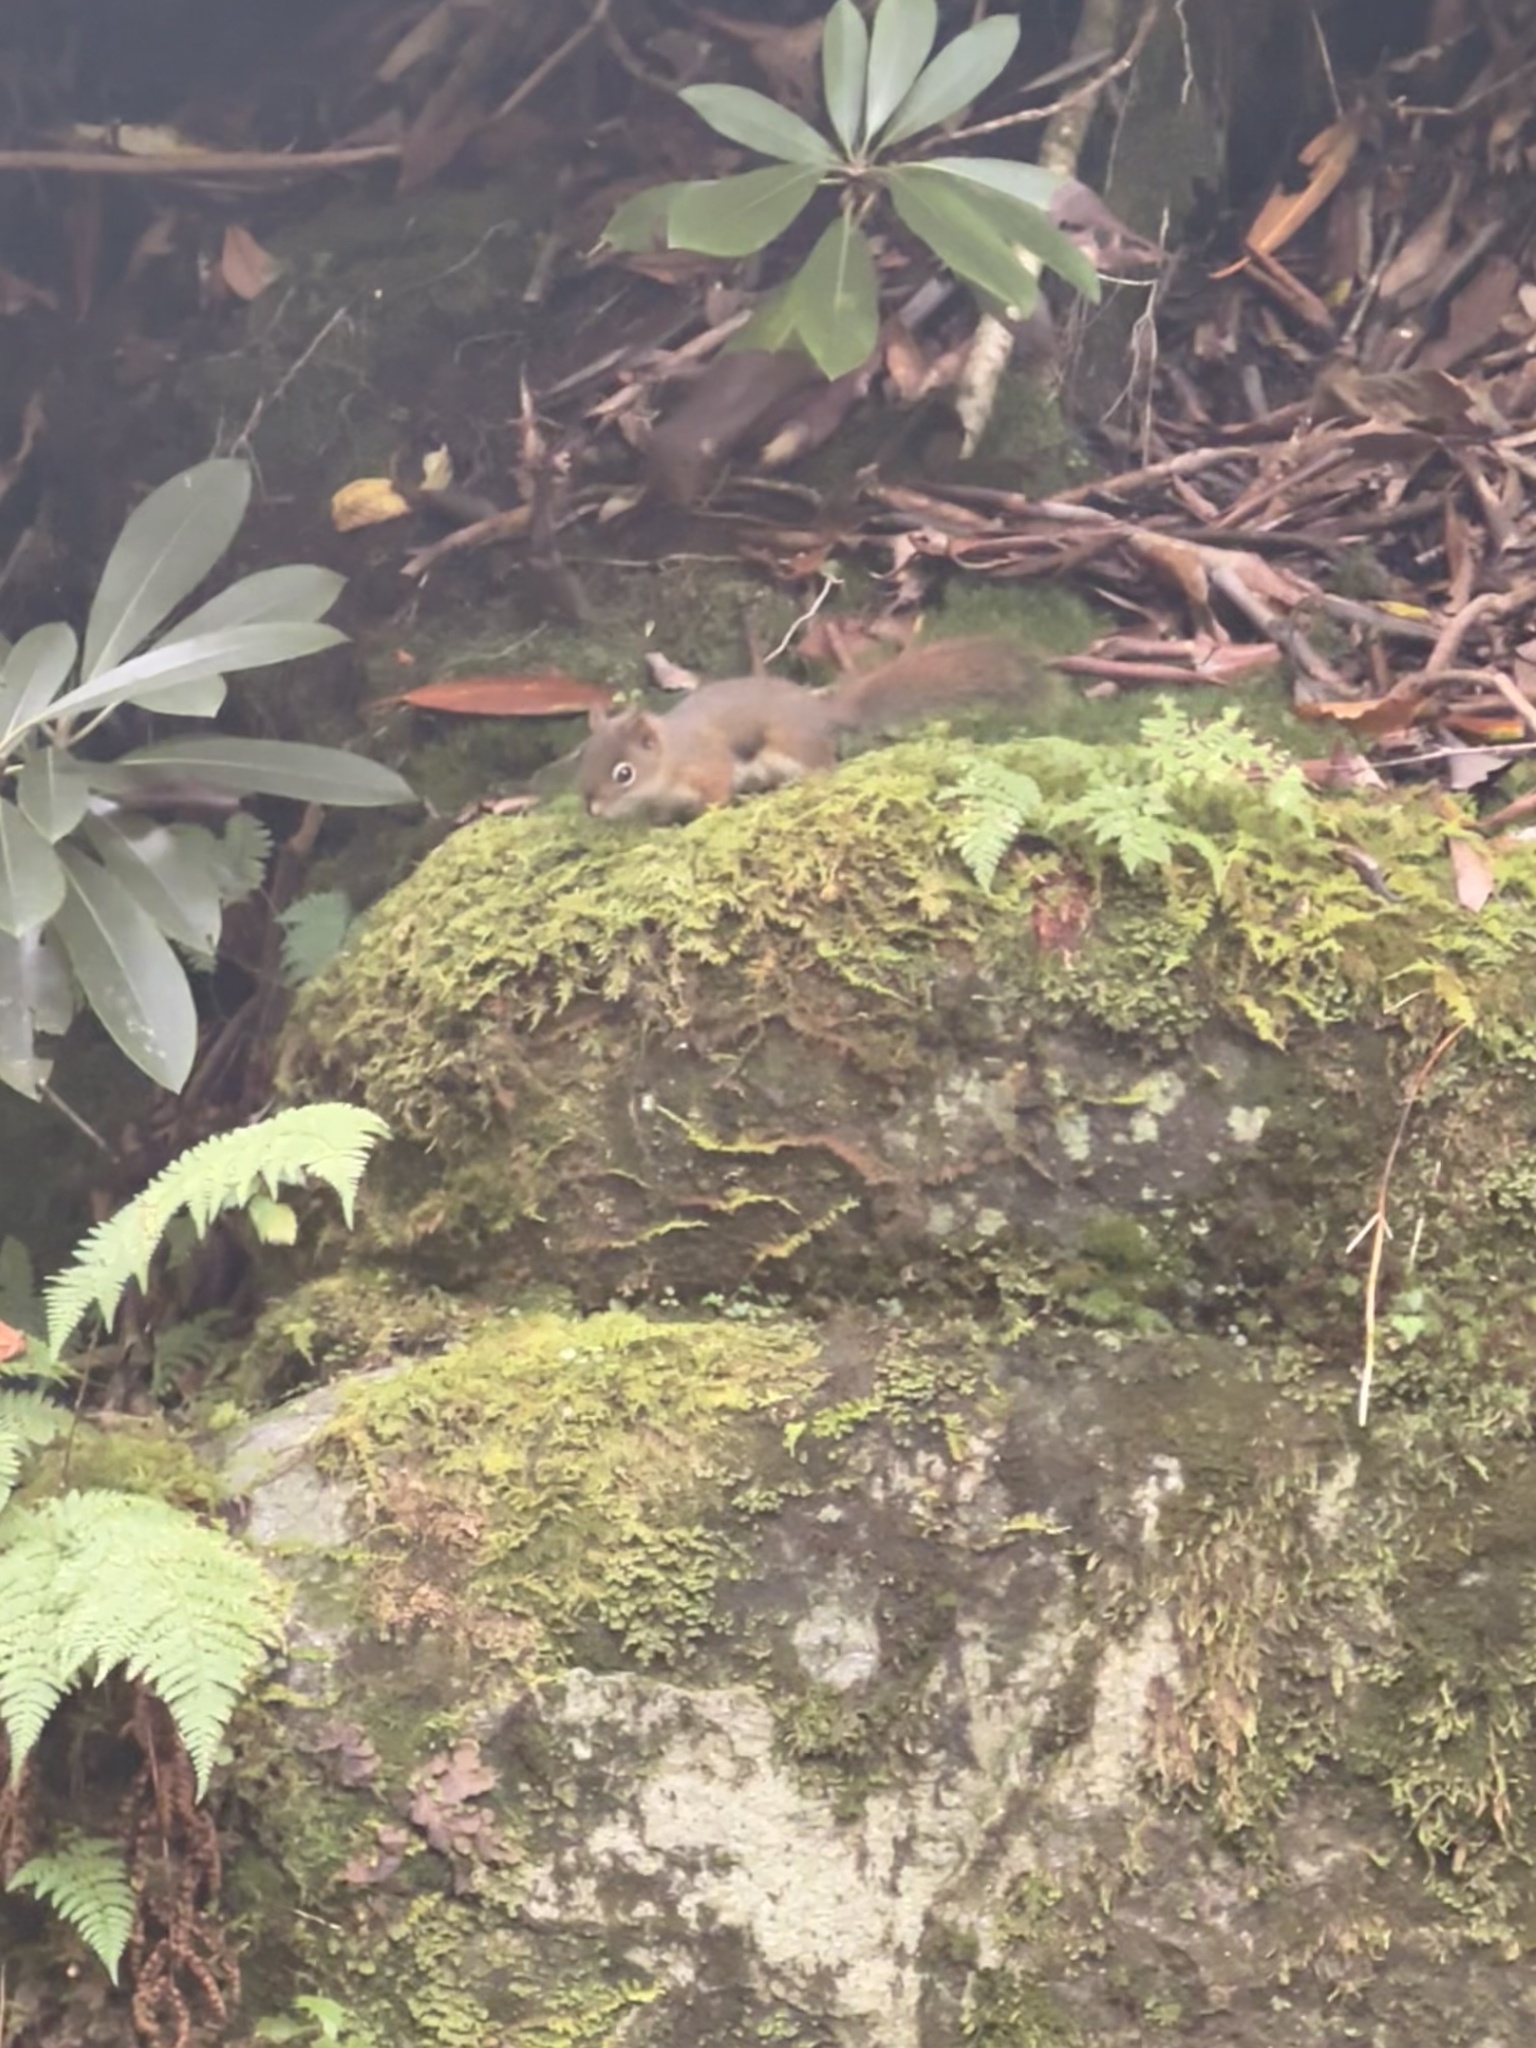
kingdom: Animalia
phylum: Chordata
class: Mammalia
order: Rodentia
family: Sciuridae
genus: Tamiasciurus
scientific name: Tamiasciurus hudsonicus
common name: Red squirrel
